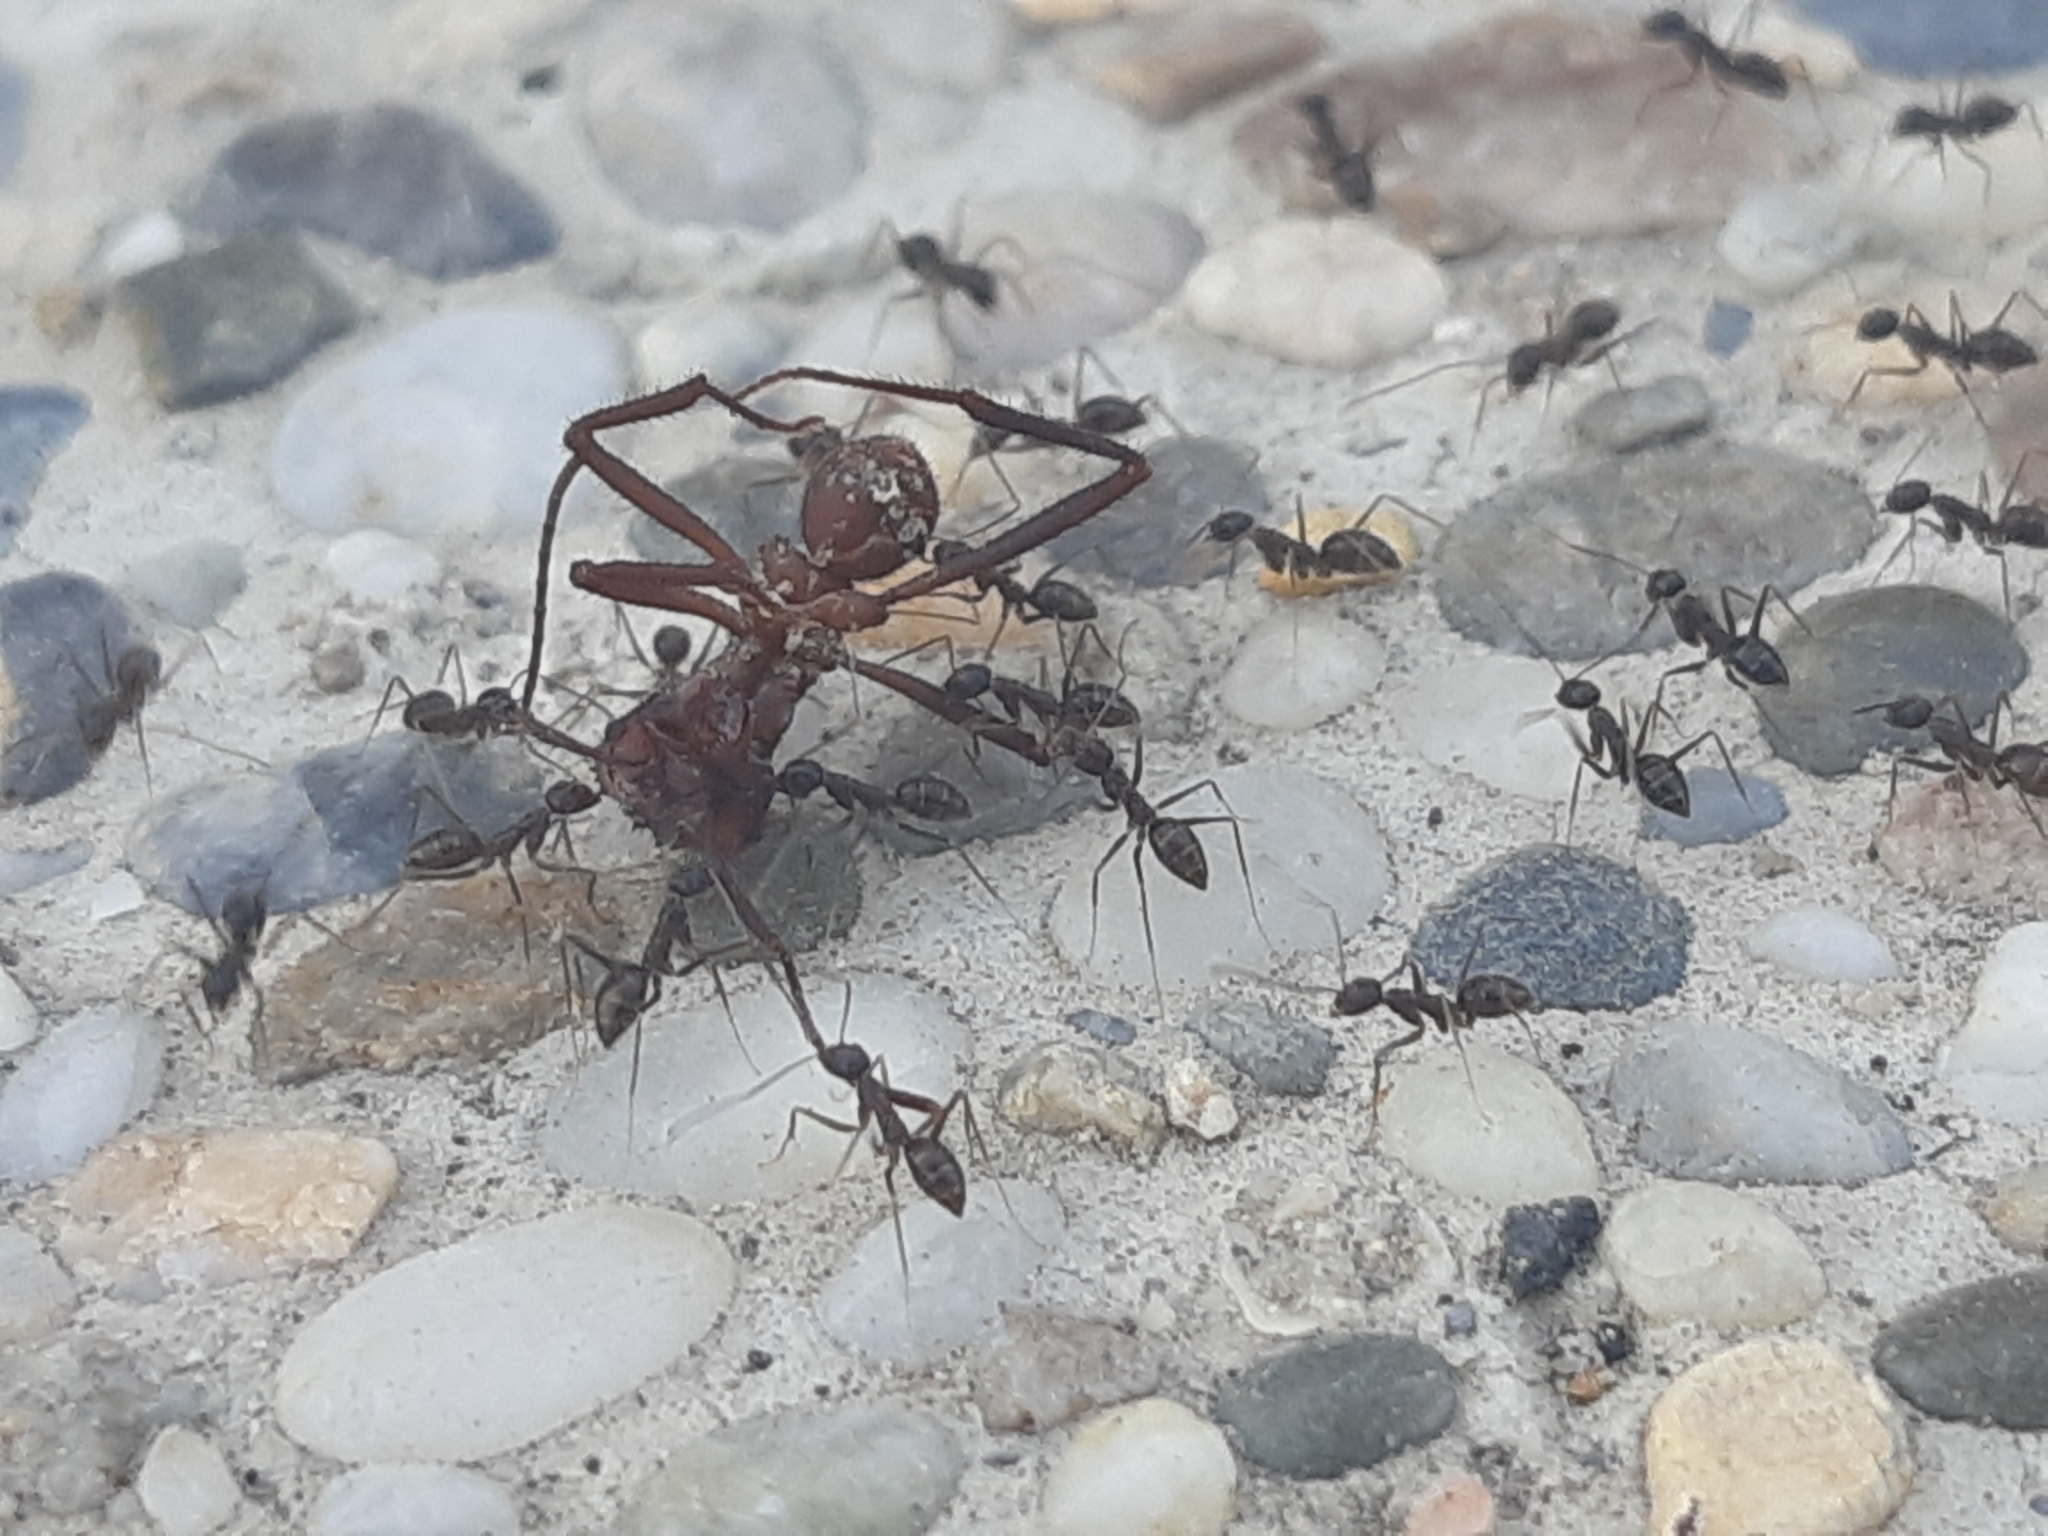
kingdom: Animalia
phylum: Arthropoda
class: Insecta
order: Hymenoptera
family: Formicidae
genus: Paratrechina
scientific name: Paratrechina longicornis
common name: Longhorned crazy ant
